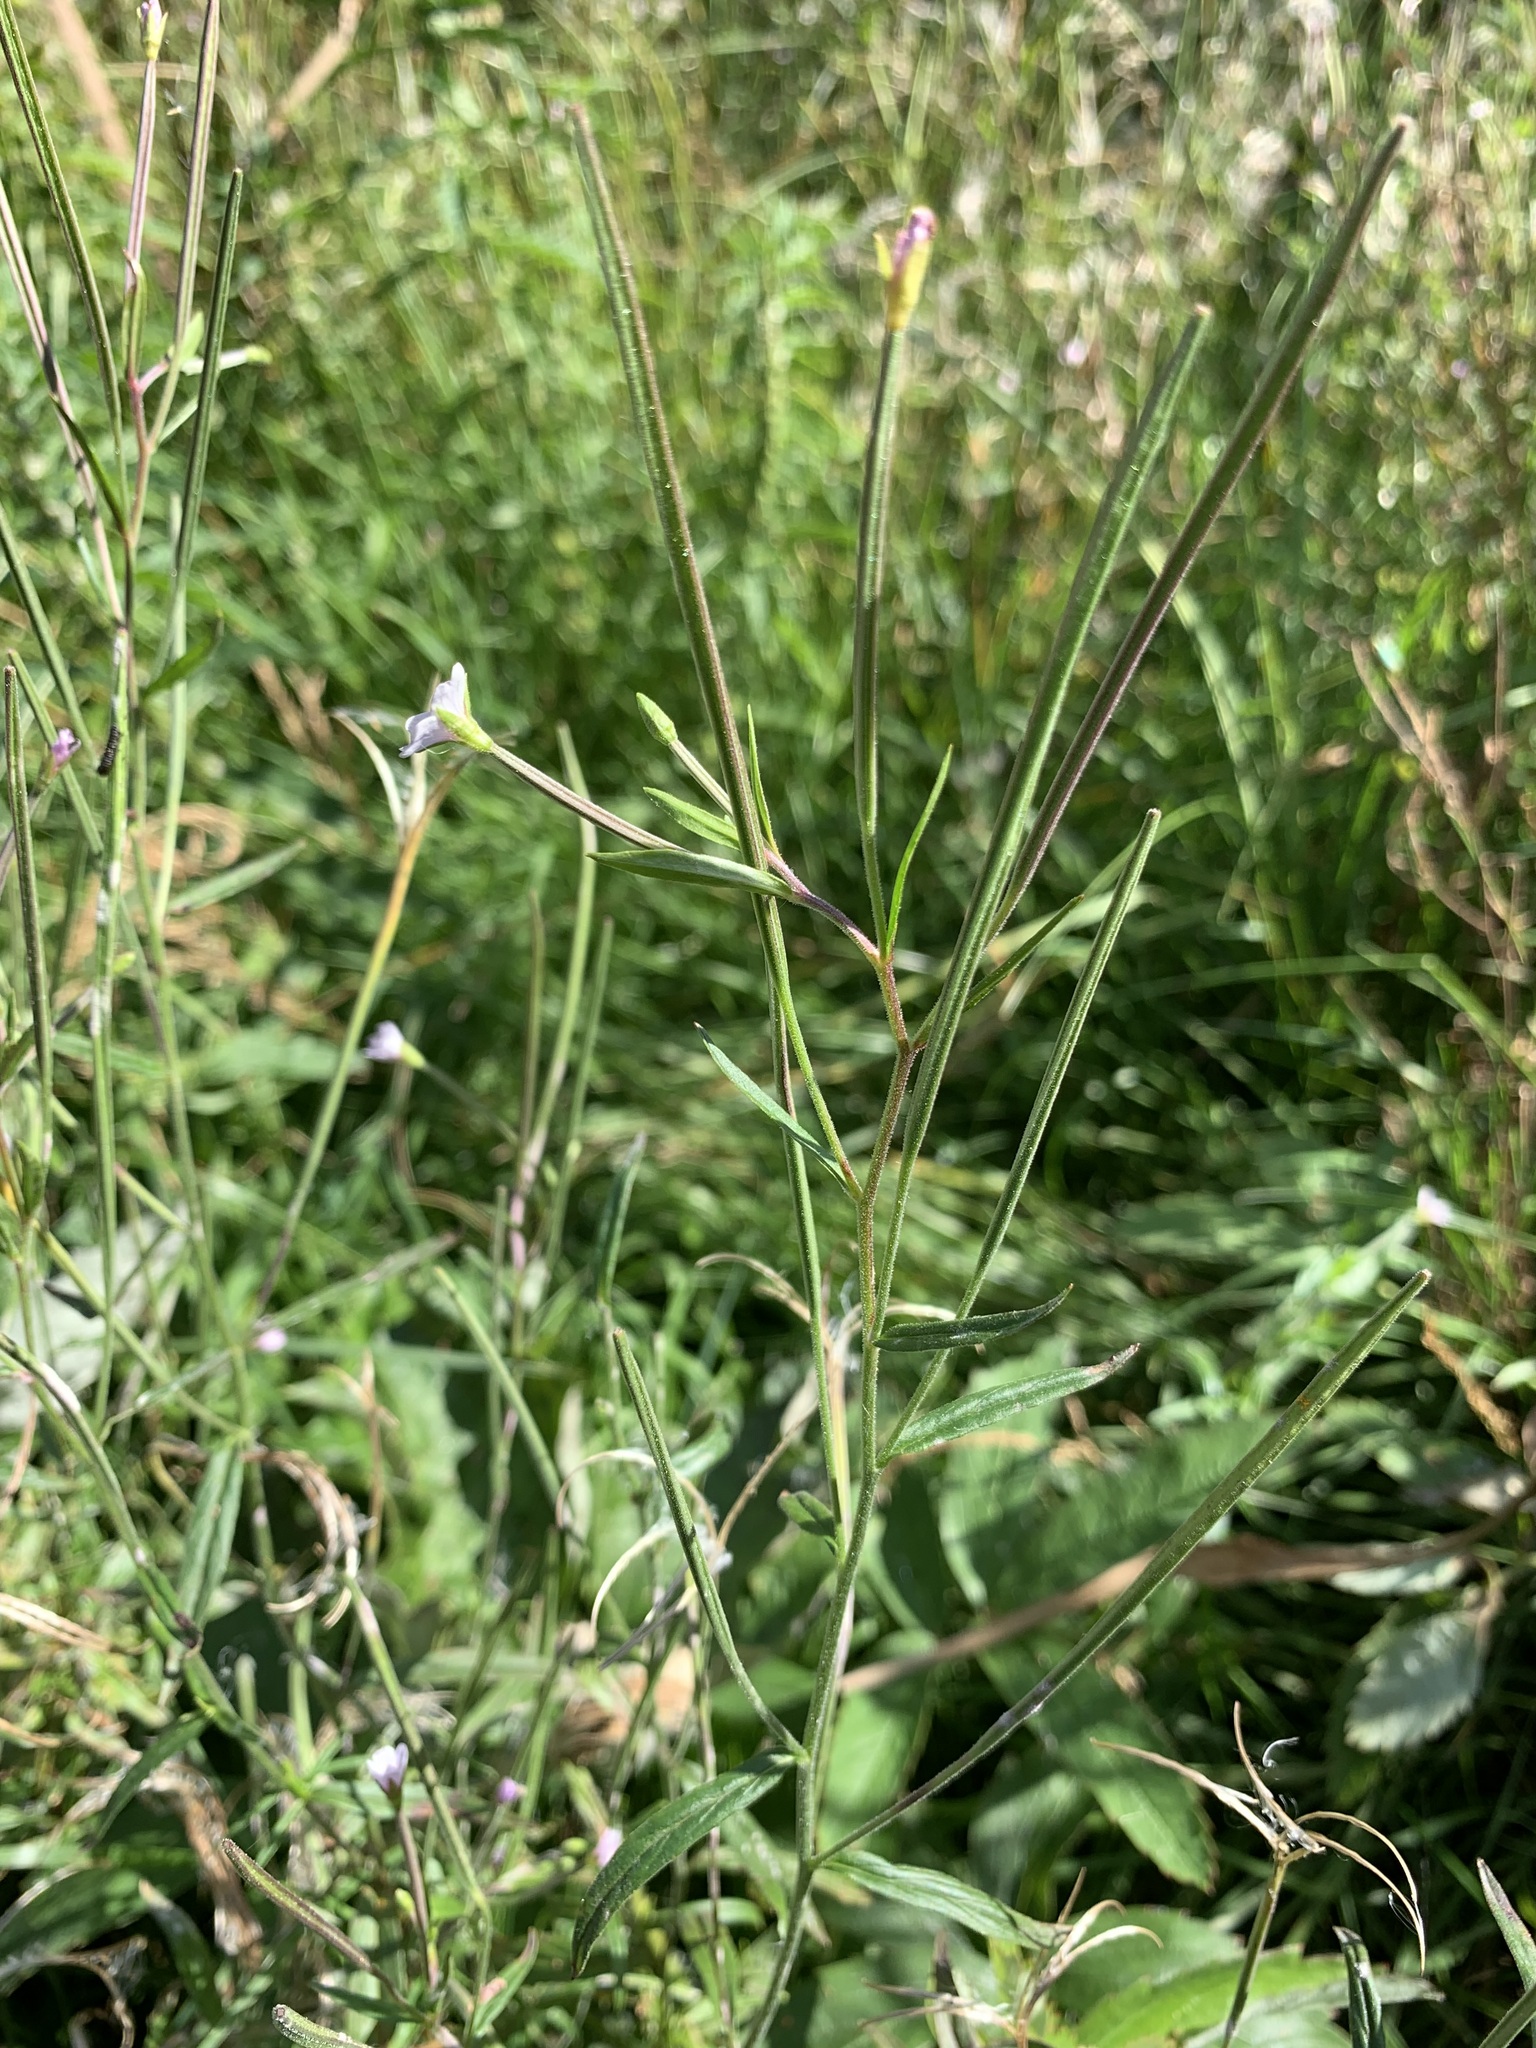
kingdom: Plantae
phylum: Tracheophyta
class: Magnoliopsida
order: Myrtales
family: Onagraceae
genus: Epilobium
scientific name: Epilobium palustre
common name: Marsh willowherb
